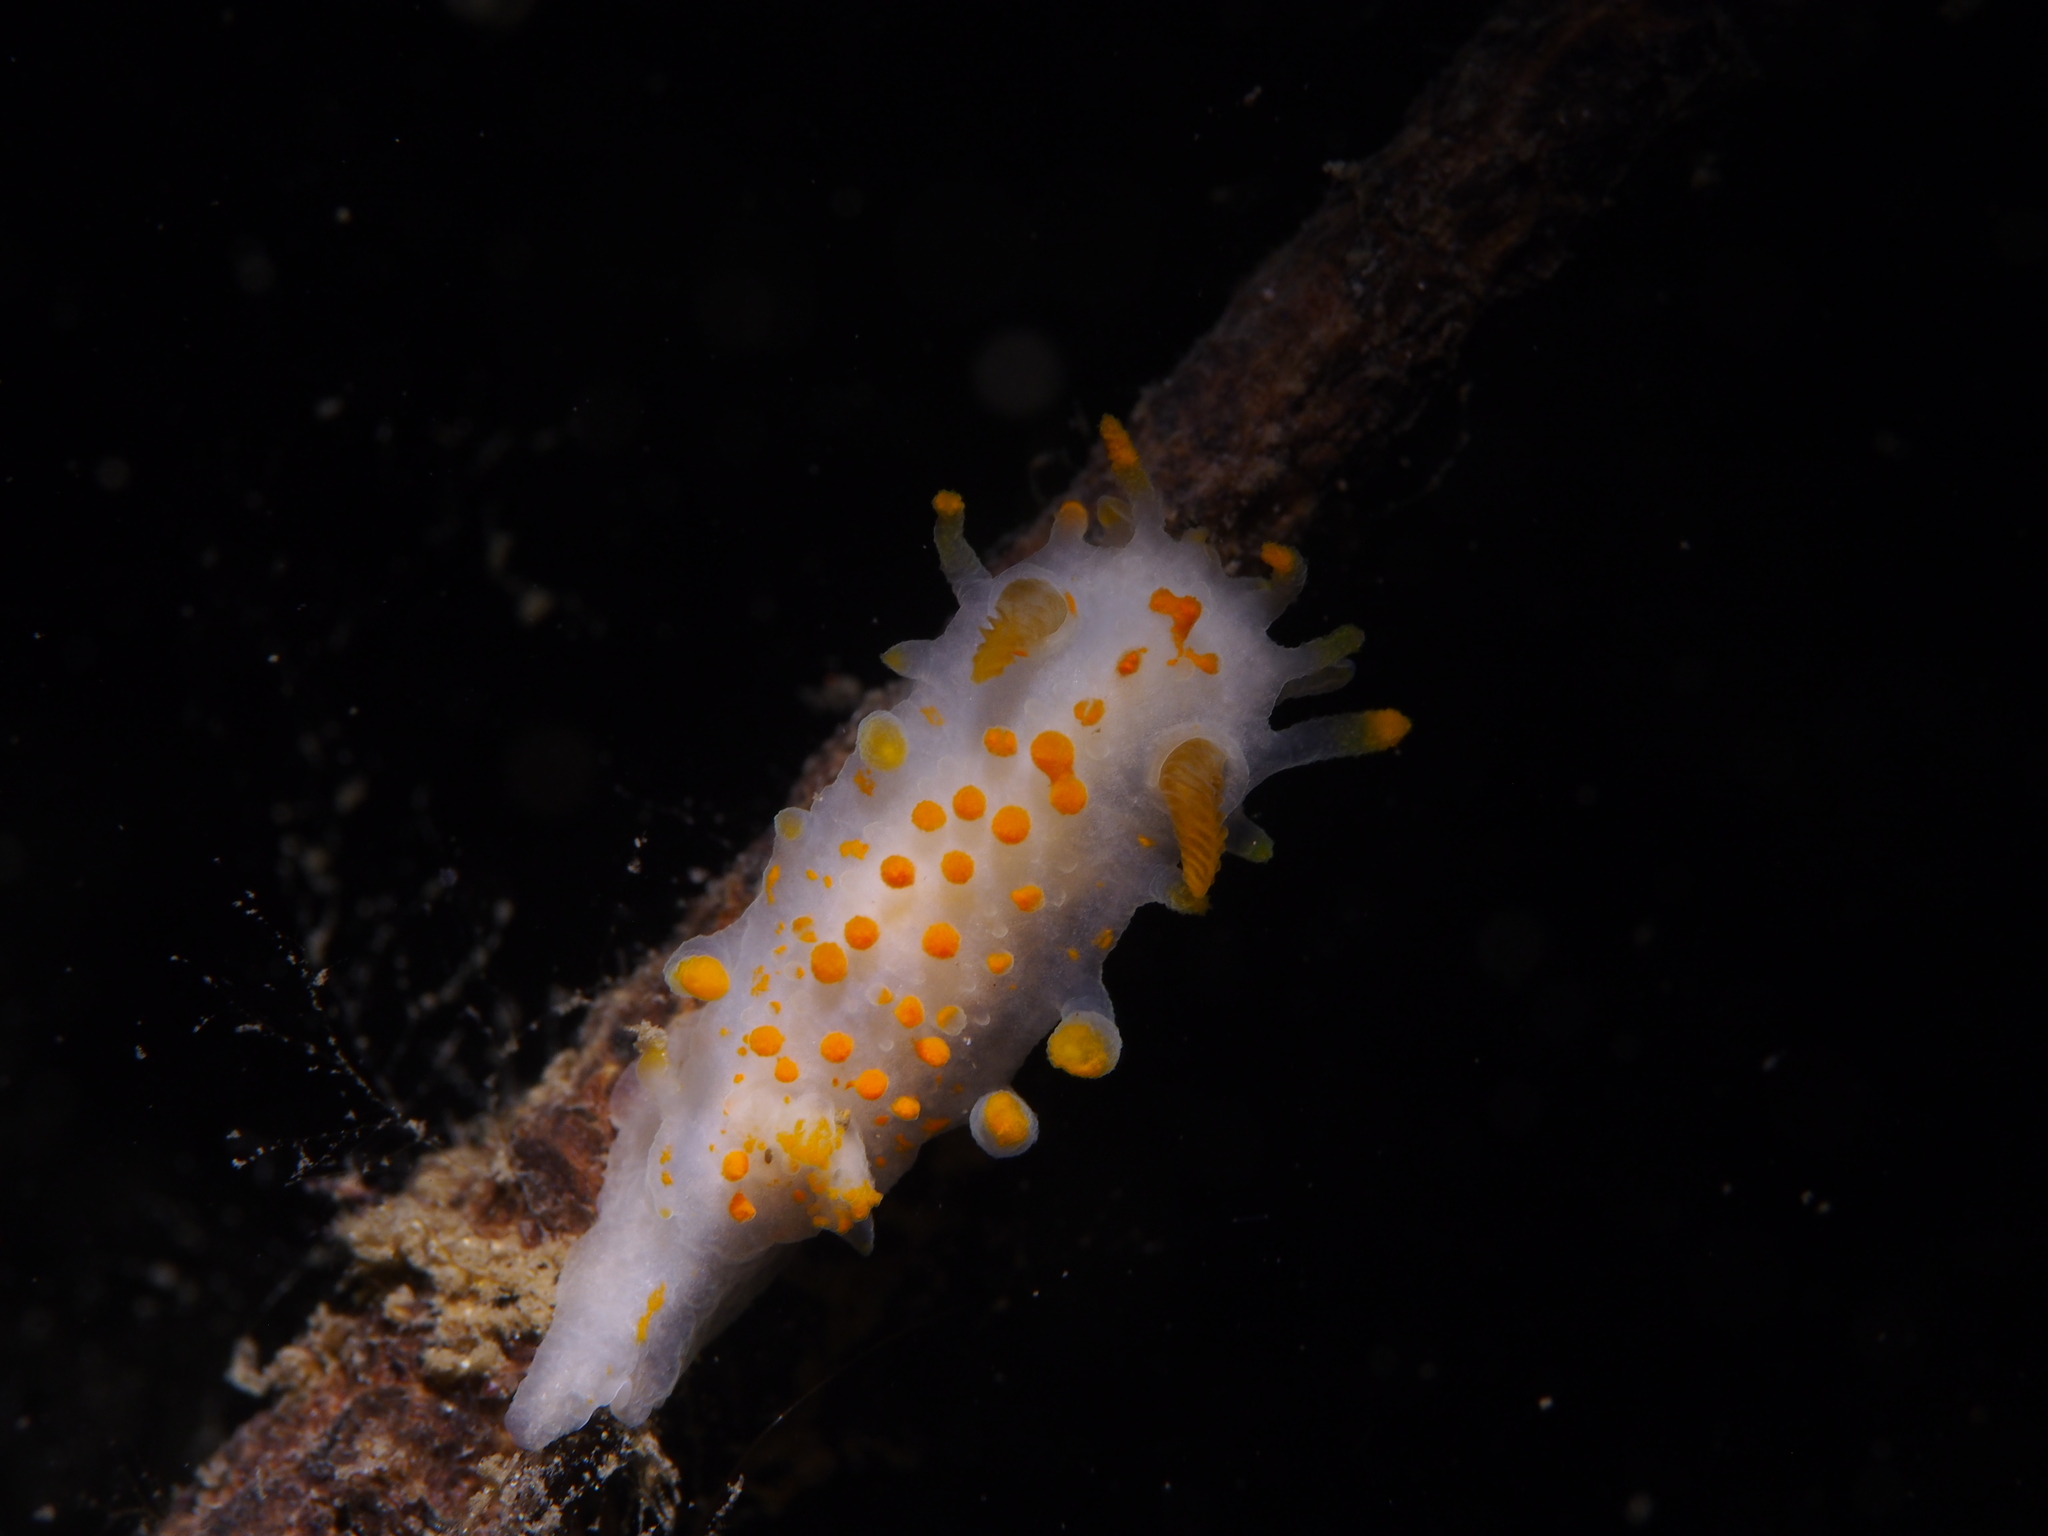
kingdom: Animalia
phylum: Mollusca
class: Gastropoda
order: Nudibranchia
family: Polyceridae
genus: Limacia
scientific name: Limacia clavigera
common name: Orange-clubbed sea slug
